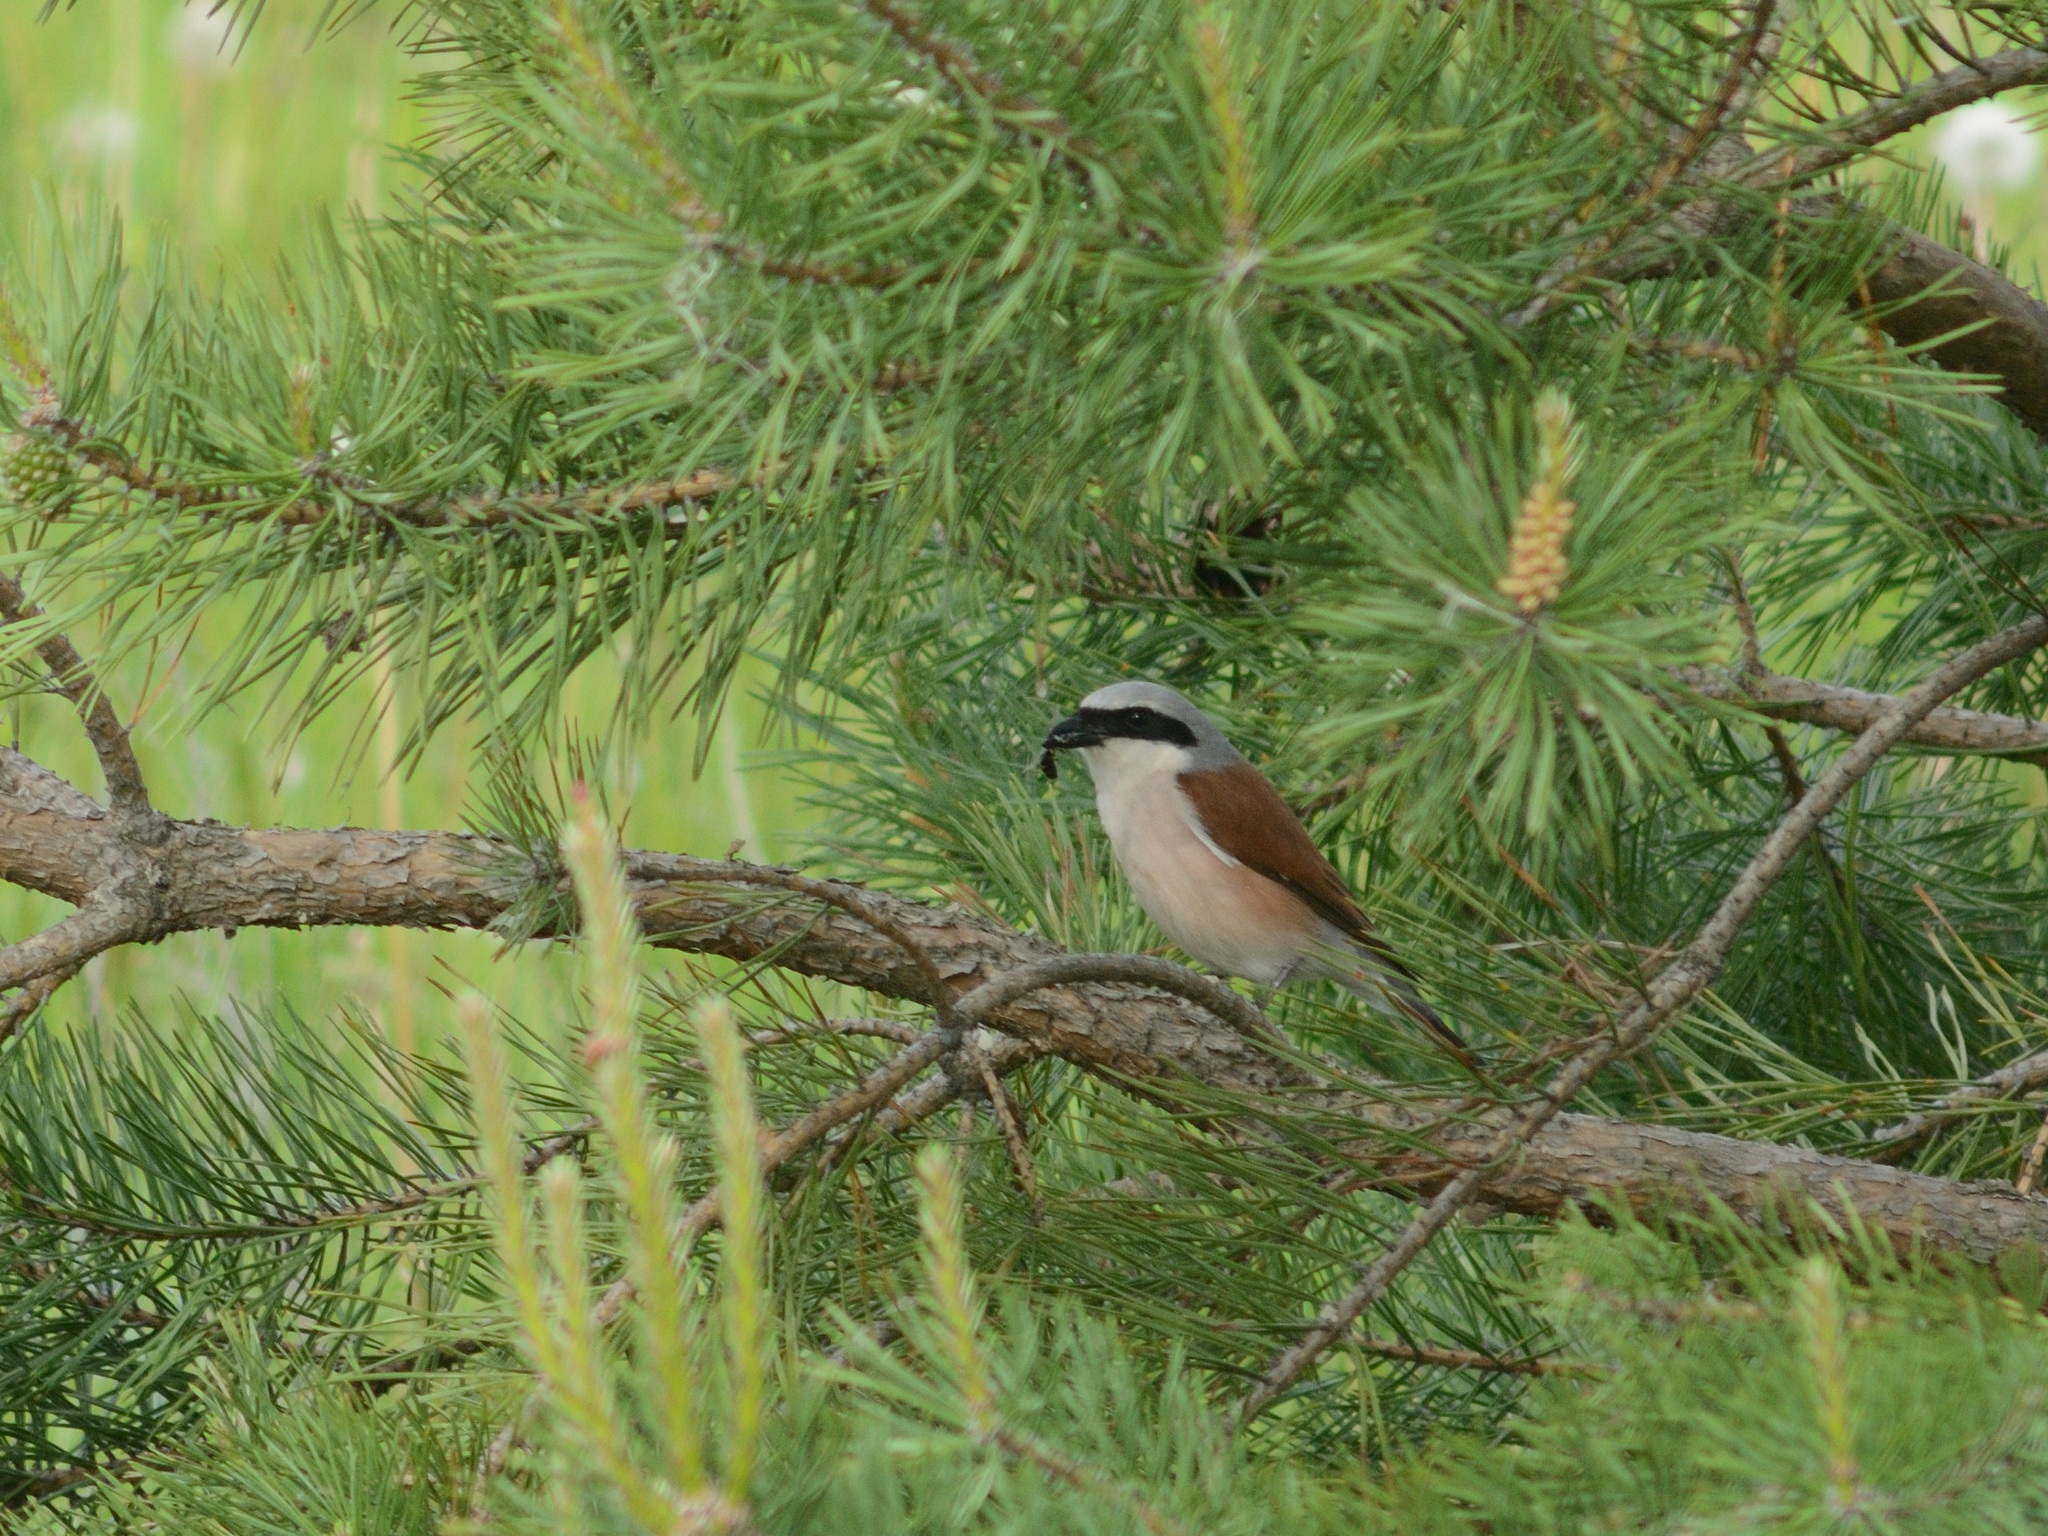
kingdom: Animalia
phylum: Chordata
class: Aves
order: Passeriformes
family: Laniidae
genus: Lanius
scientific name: Lanius collurio
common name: Red-backed shrike
